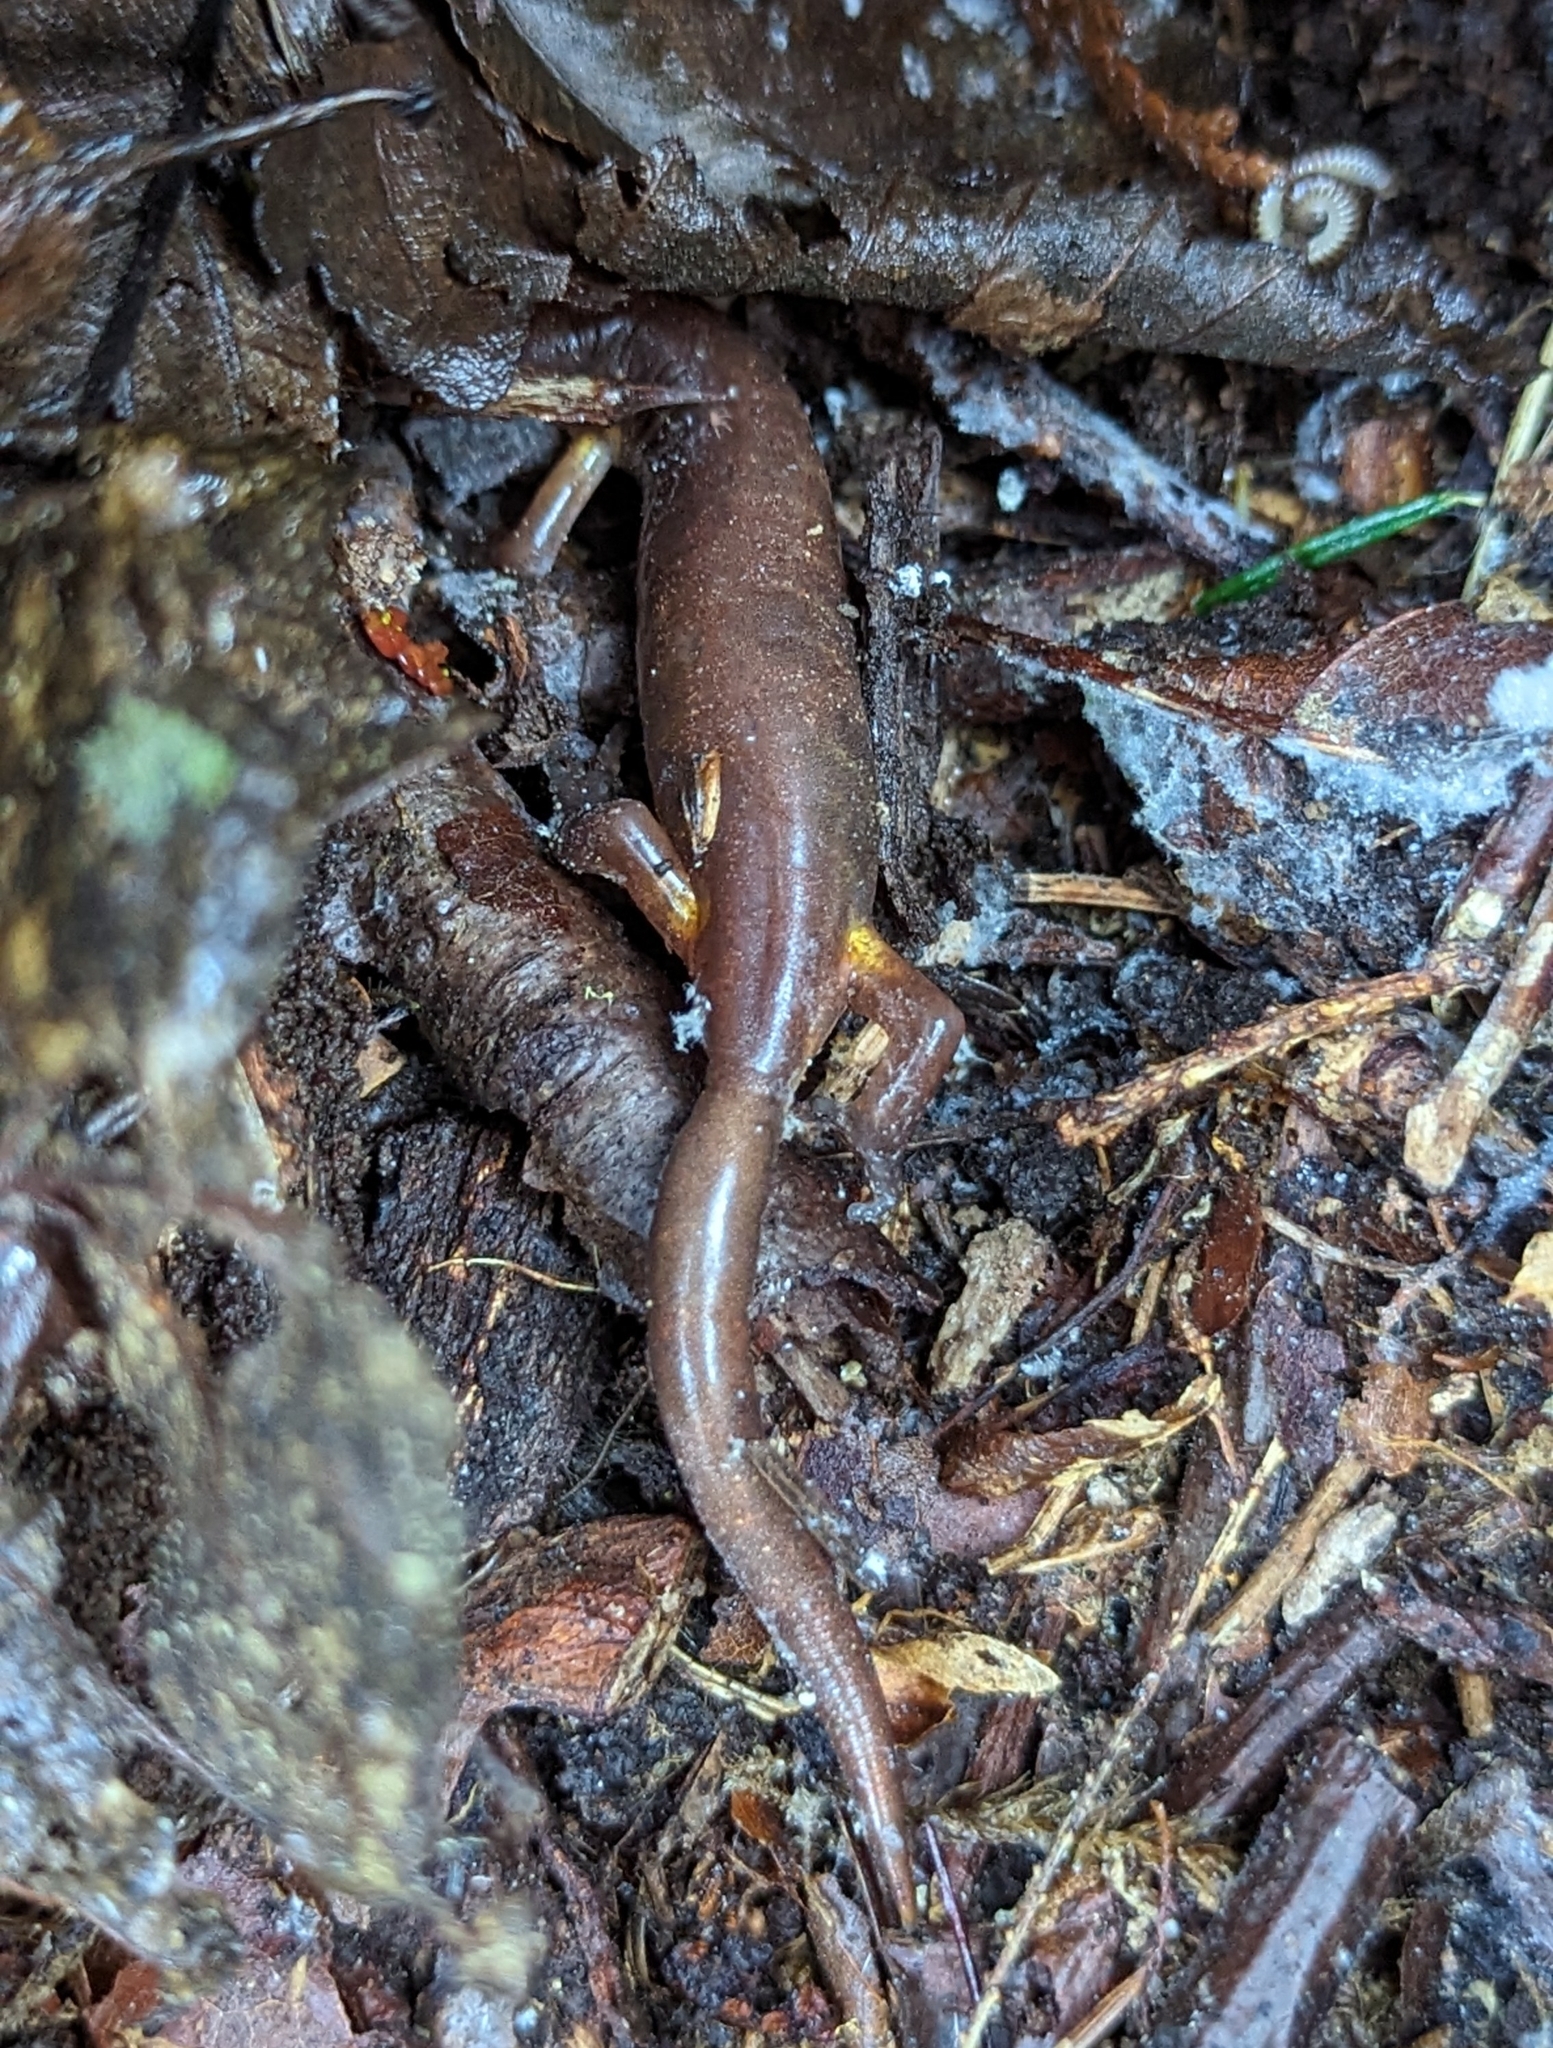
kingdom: Animalia
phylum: Chordata
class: Amphibia
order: Caudata
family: Plethodontidae
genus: Ensatina
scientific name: Ensatina eschscholtzii
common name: Ensatina
